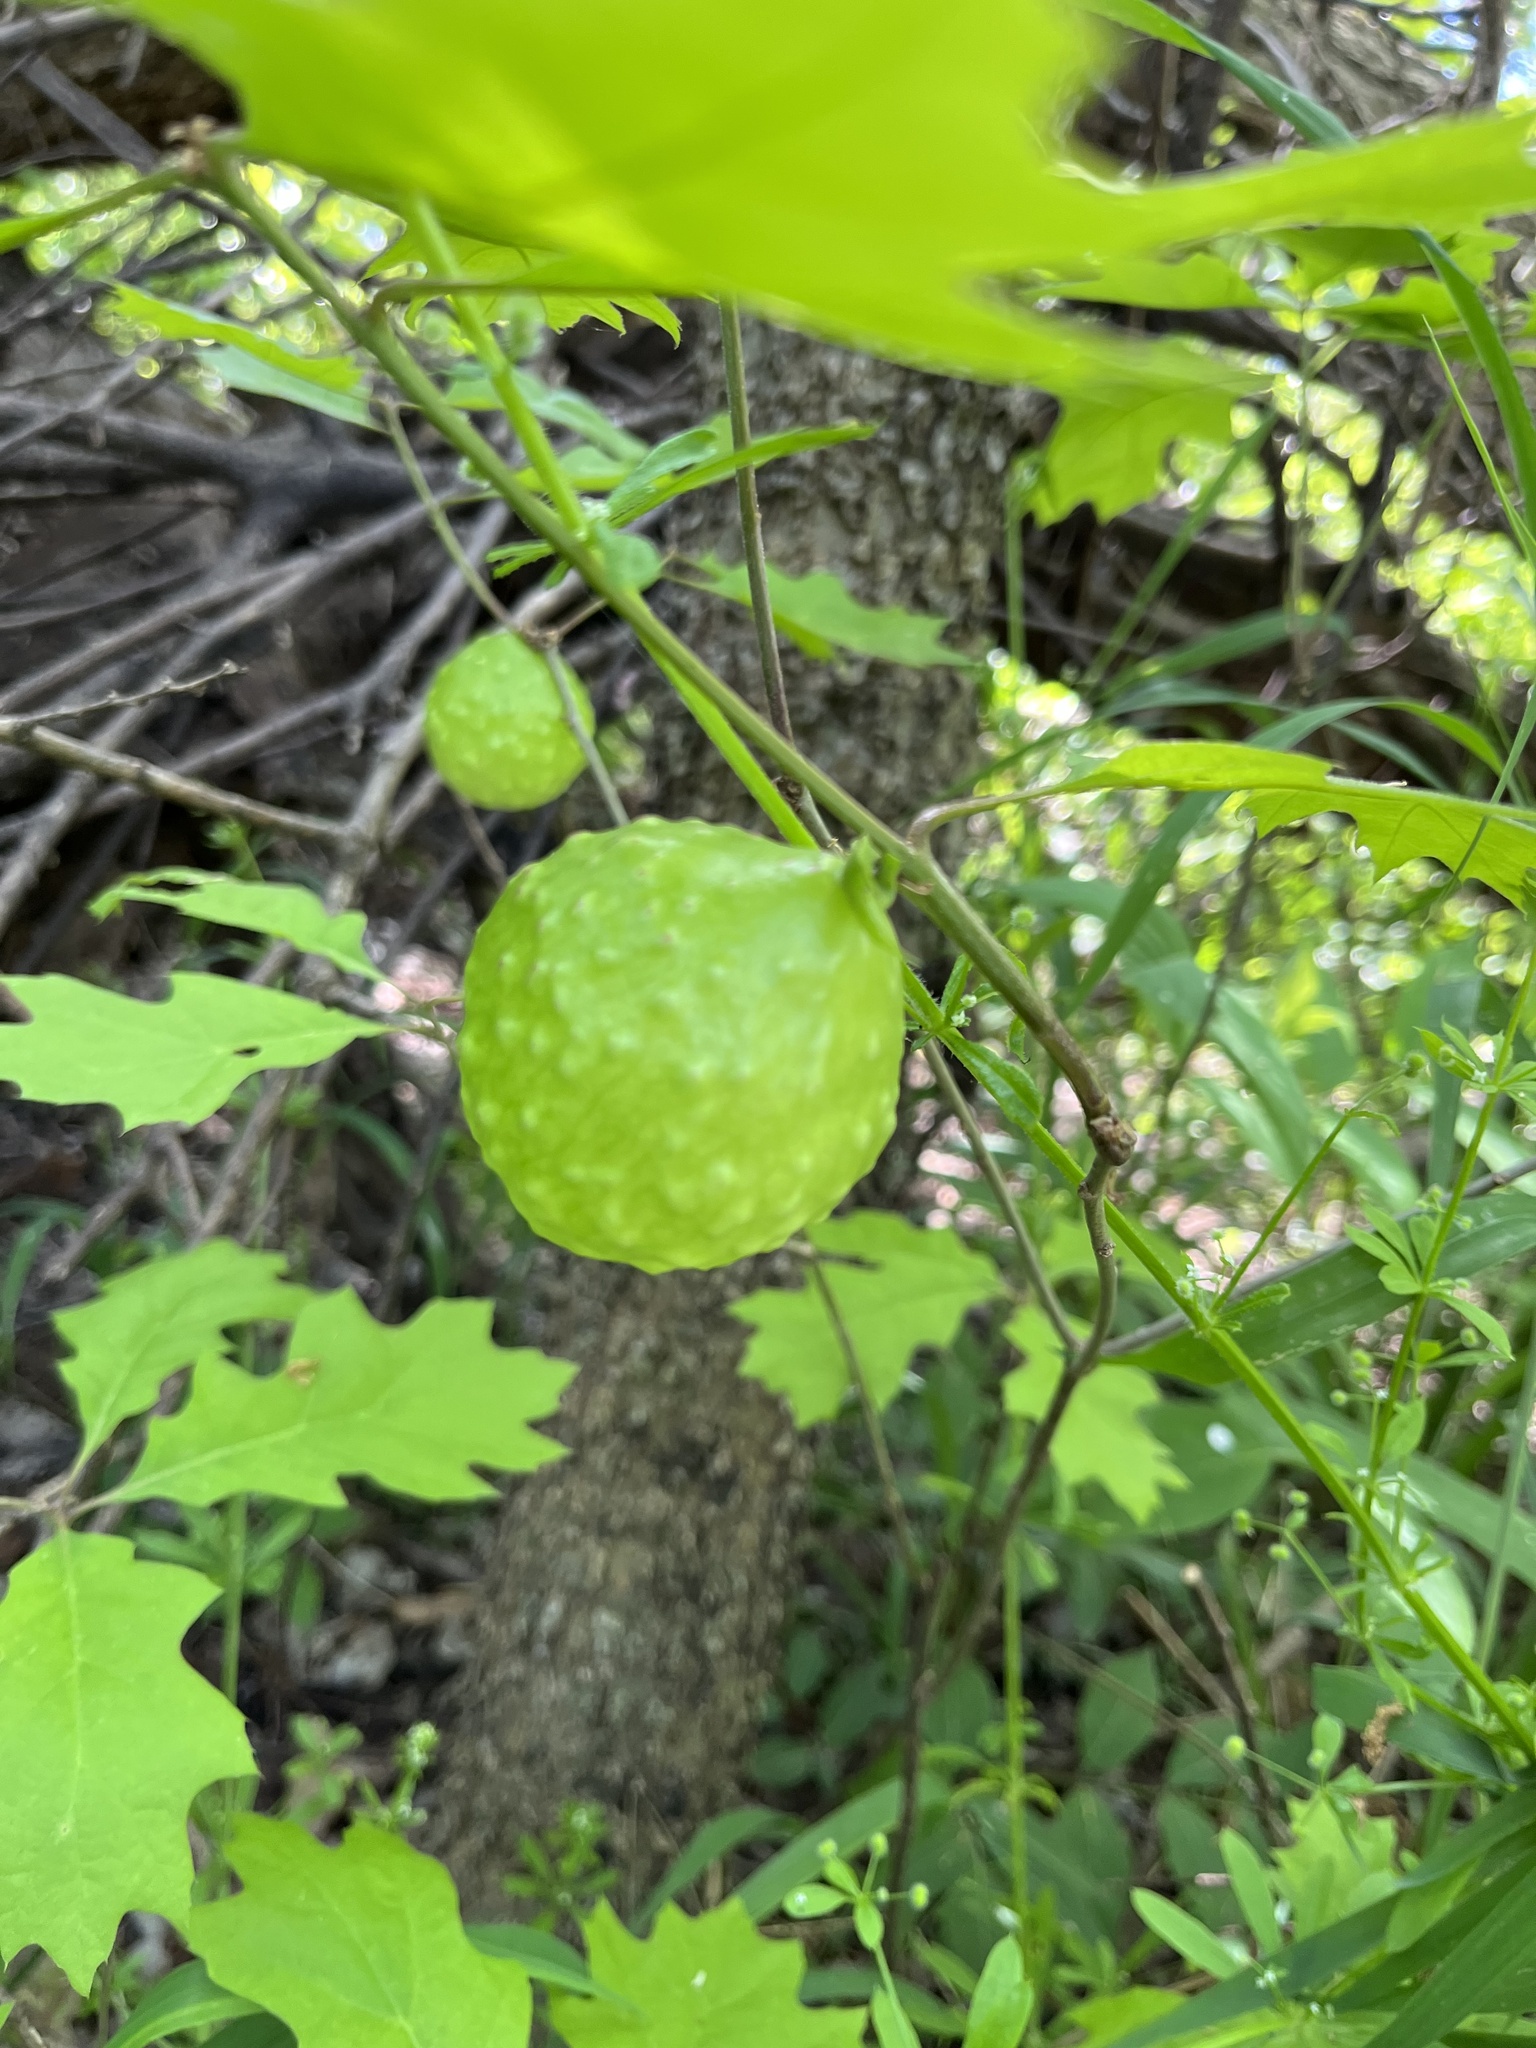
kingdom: Animalia
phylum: Arthropoda
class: Insecta
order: Hymenoptera
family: Cynipidae
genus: Amphibolips
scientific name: Amphibolips
